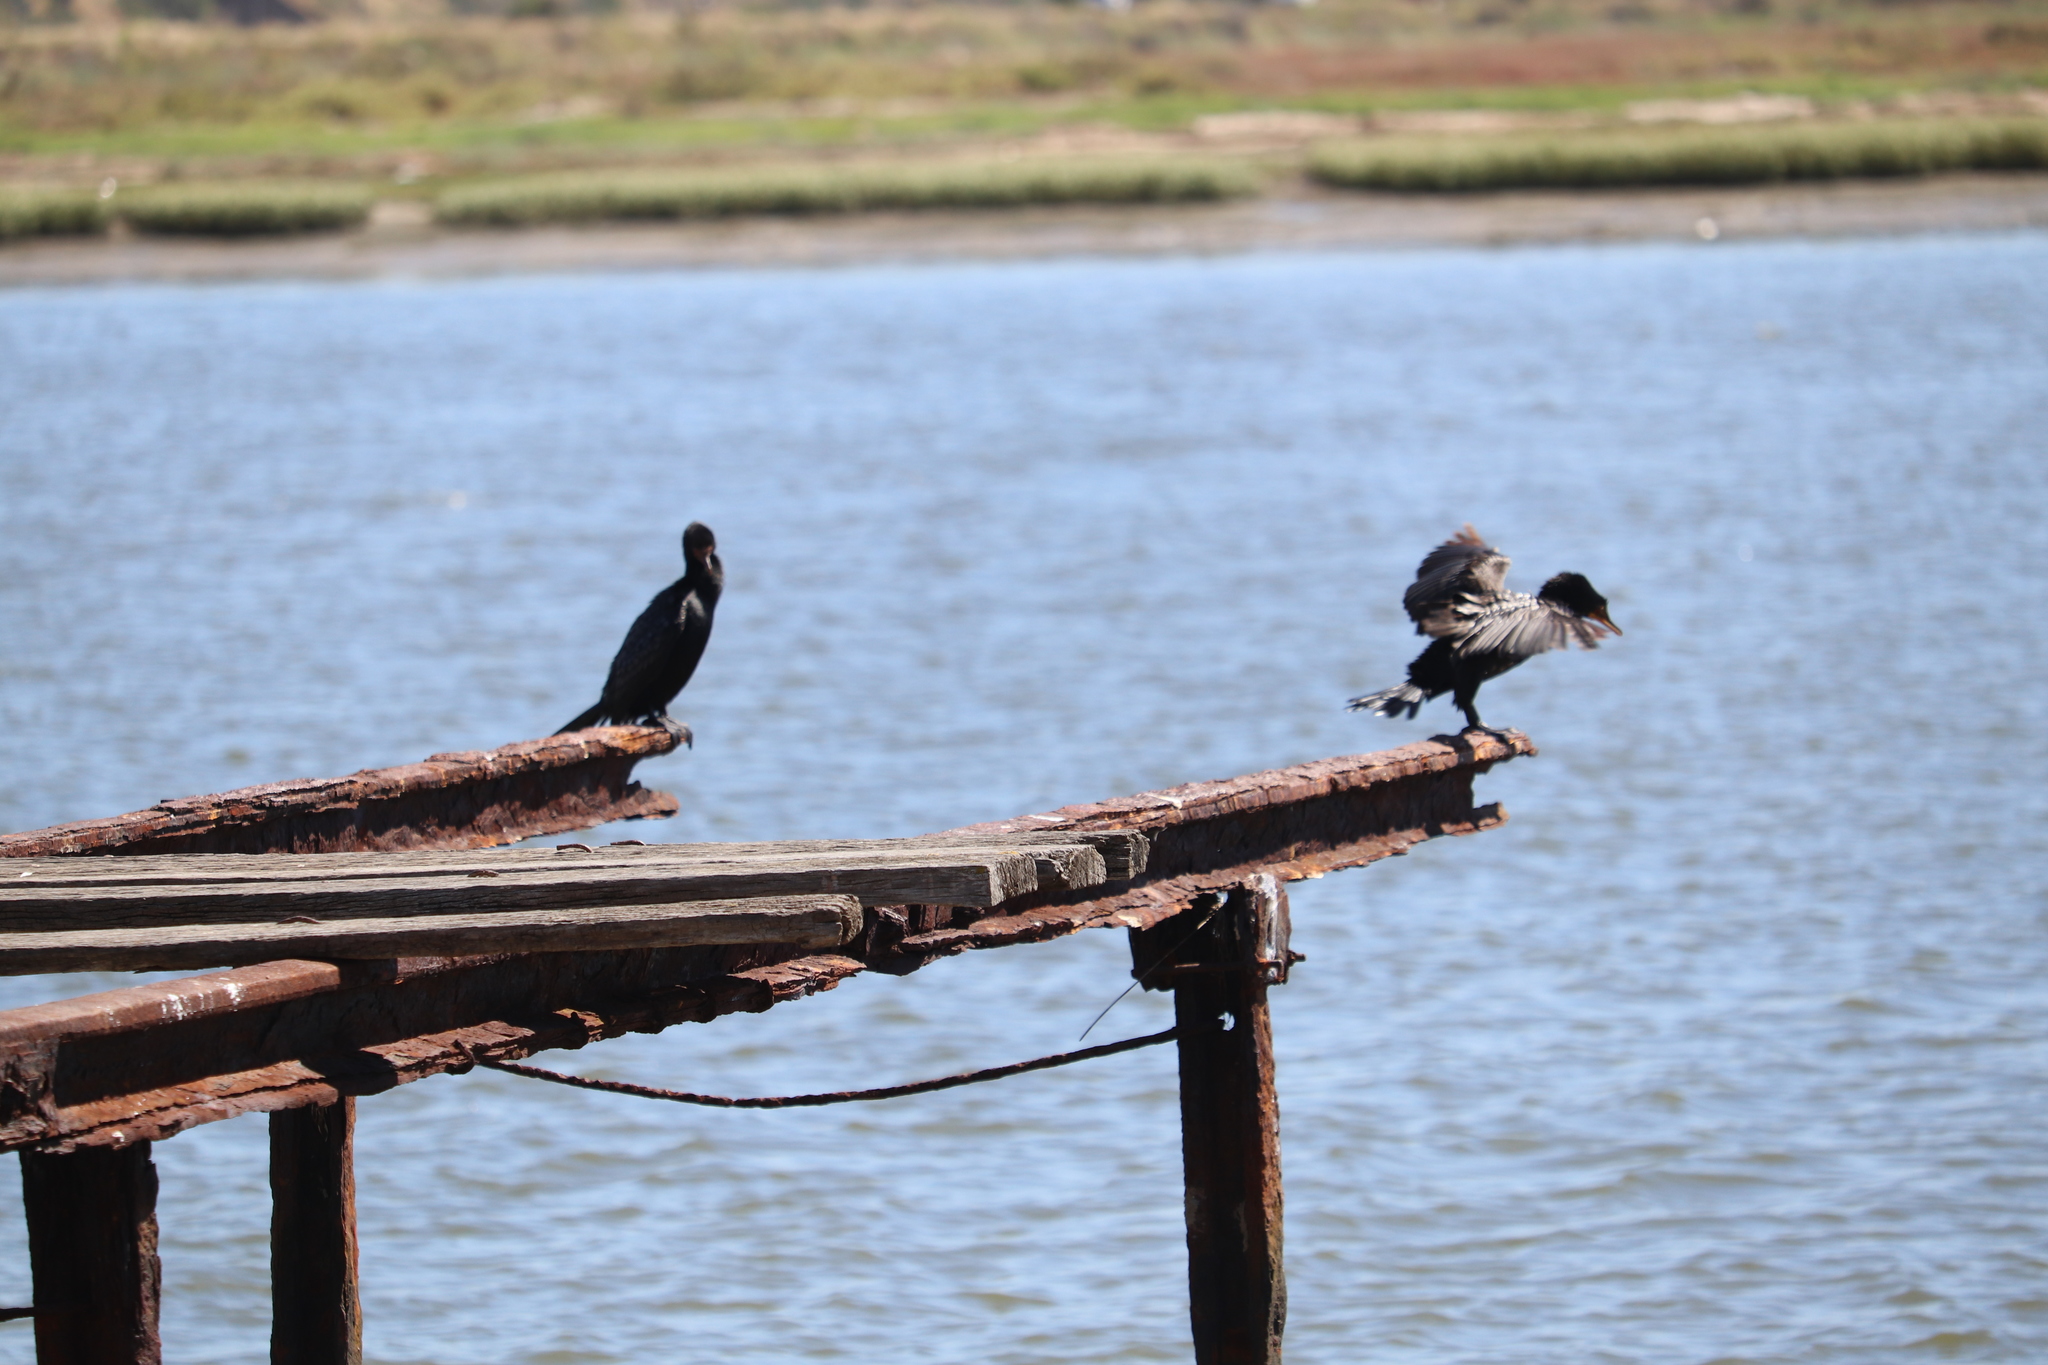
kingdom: Animalia
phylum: Chordata
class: Aves
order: Suliformes
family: Phalacrocoracidae
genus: Microcarbo
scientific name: Microcarbo africanus
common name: Long-tailed cormorant
